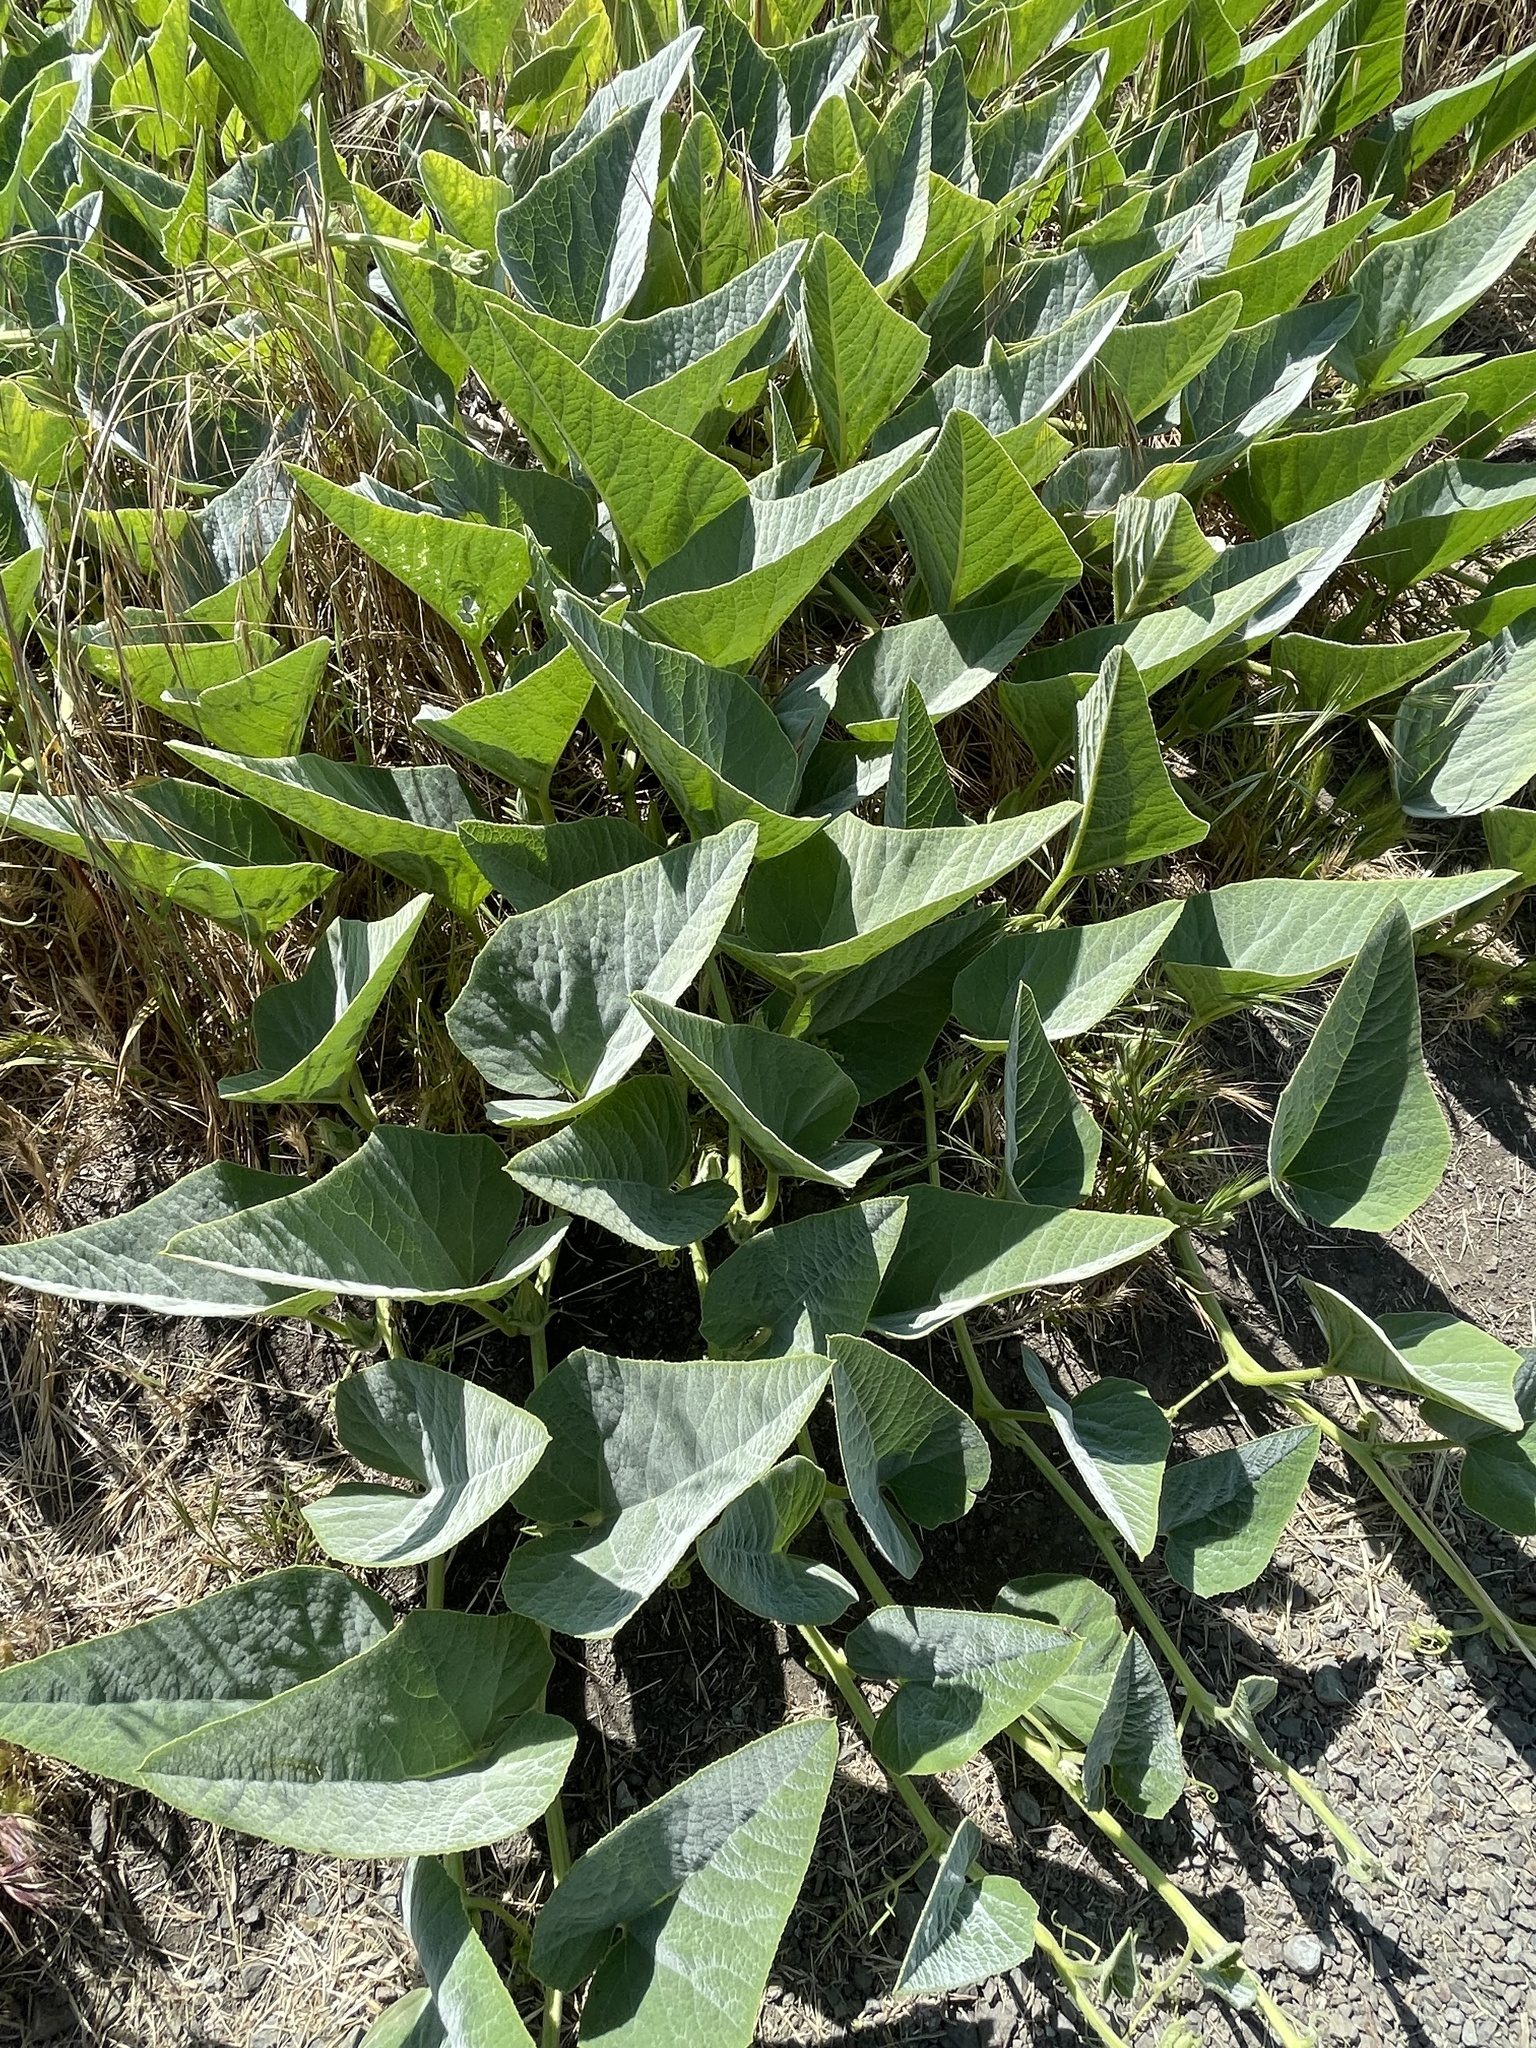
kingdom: Plantae
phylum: Tracheophyta
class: Magnoliopsida
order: Cucurbitales
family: Cucurbitaceae
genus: Cucurbita
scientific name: Cucurbita foetidissima
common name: Buffalo gourd
